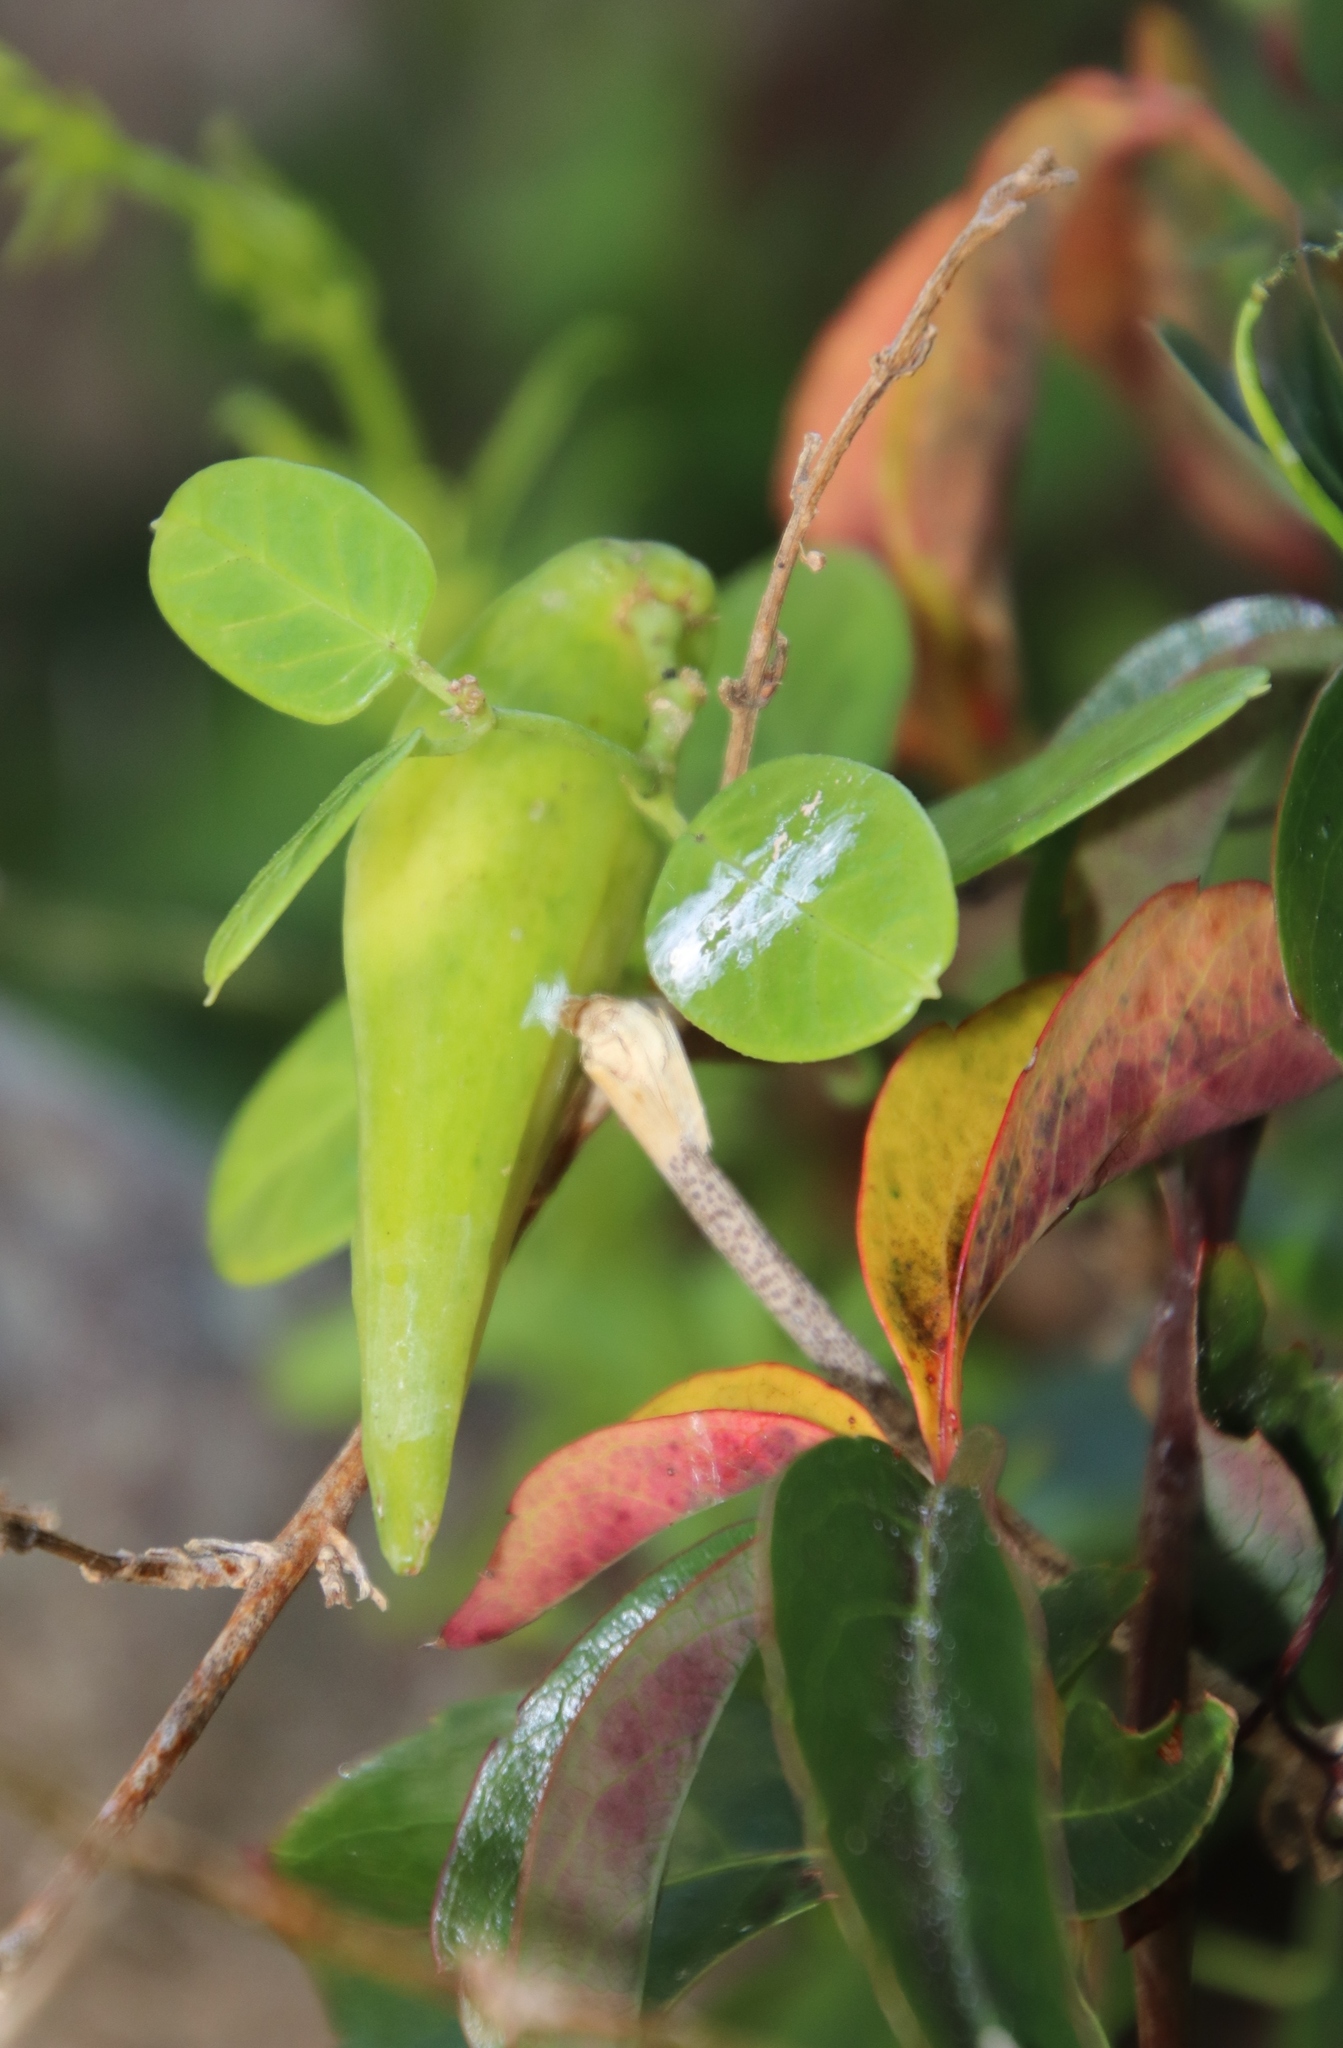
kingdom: Plantae
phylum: Tracheophyta
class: Magnoliopsida
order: Gentianales
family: Apocynaceae
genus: Cynanchum
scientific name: Cynanchum obtusifolium
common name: Monkey-rope
